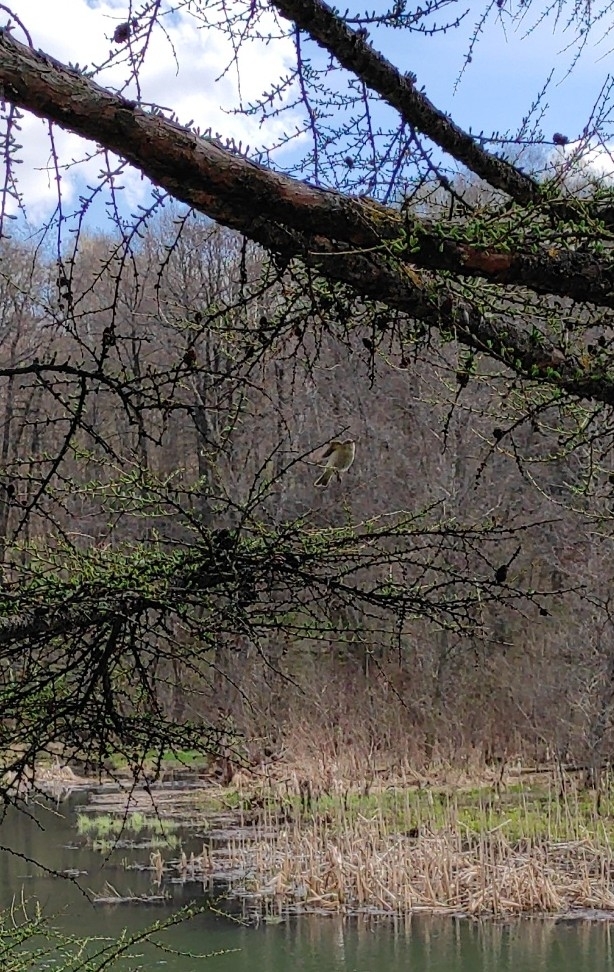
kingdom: Animalia
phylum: Chordata
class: Aves
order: Passeriformes
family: Phylloscopidae
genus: Phylloscopus
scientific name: Phylloscopus collybita
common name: Common chiffchaff
